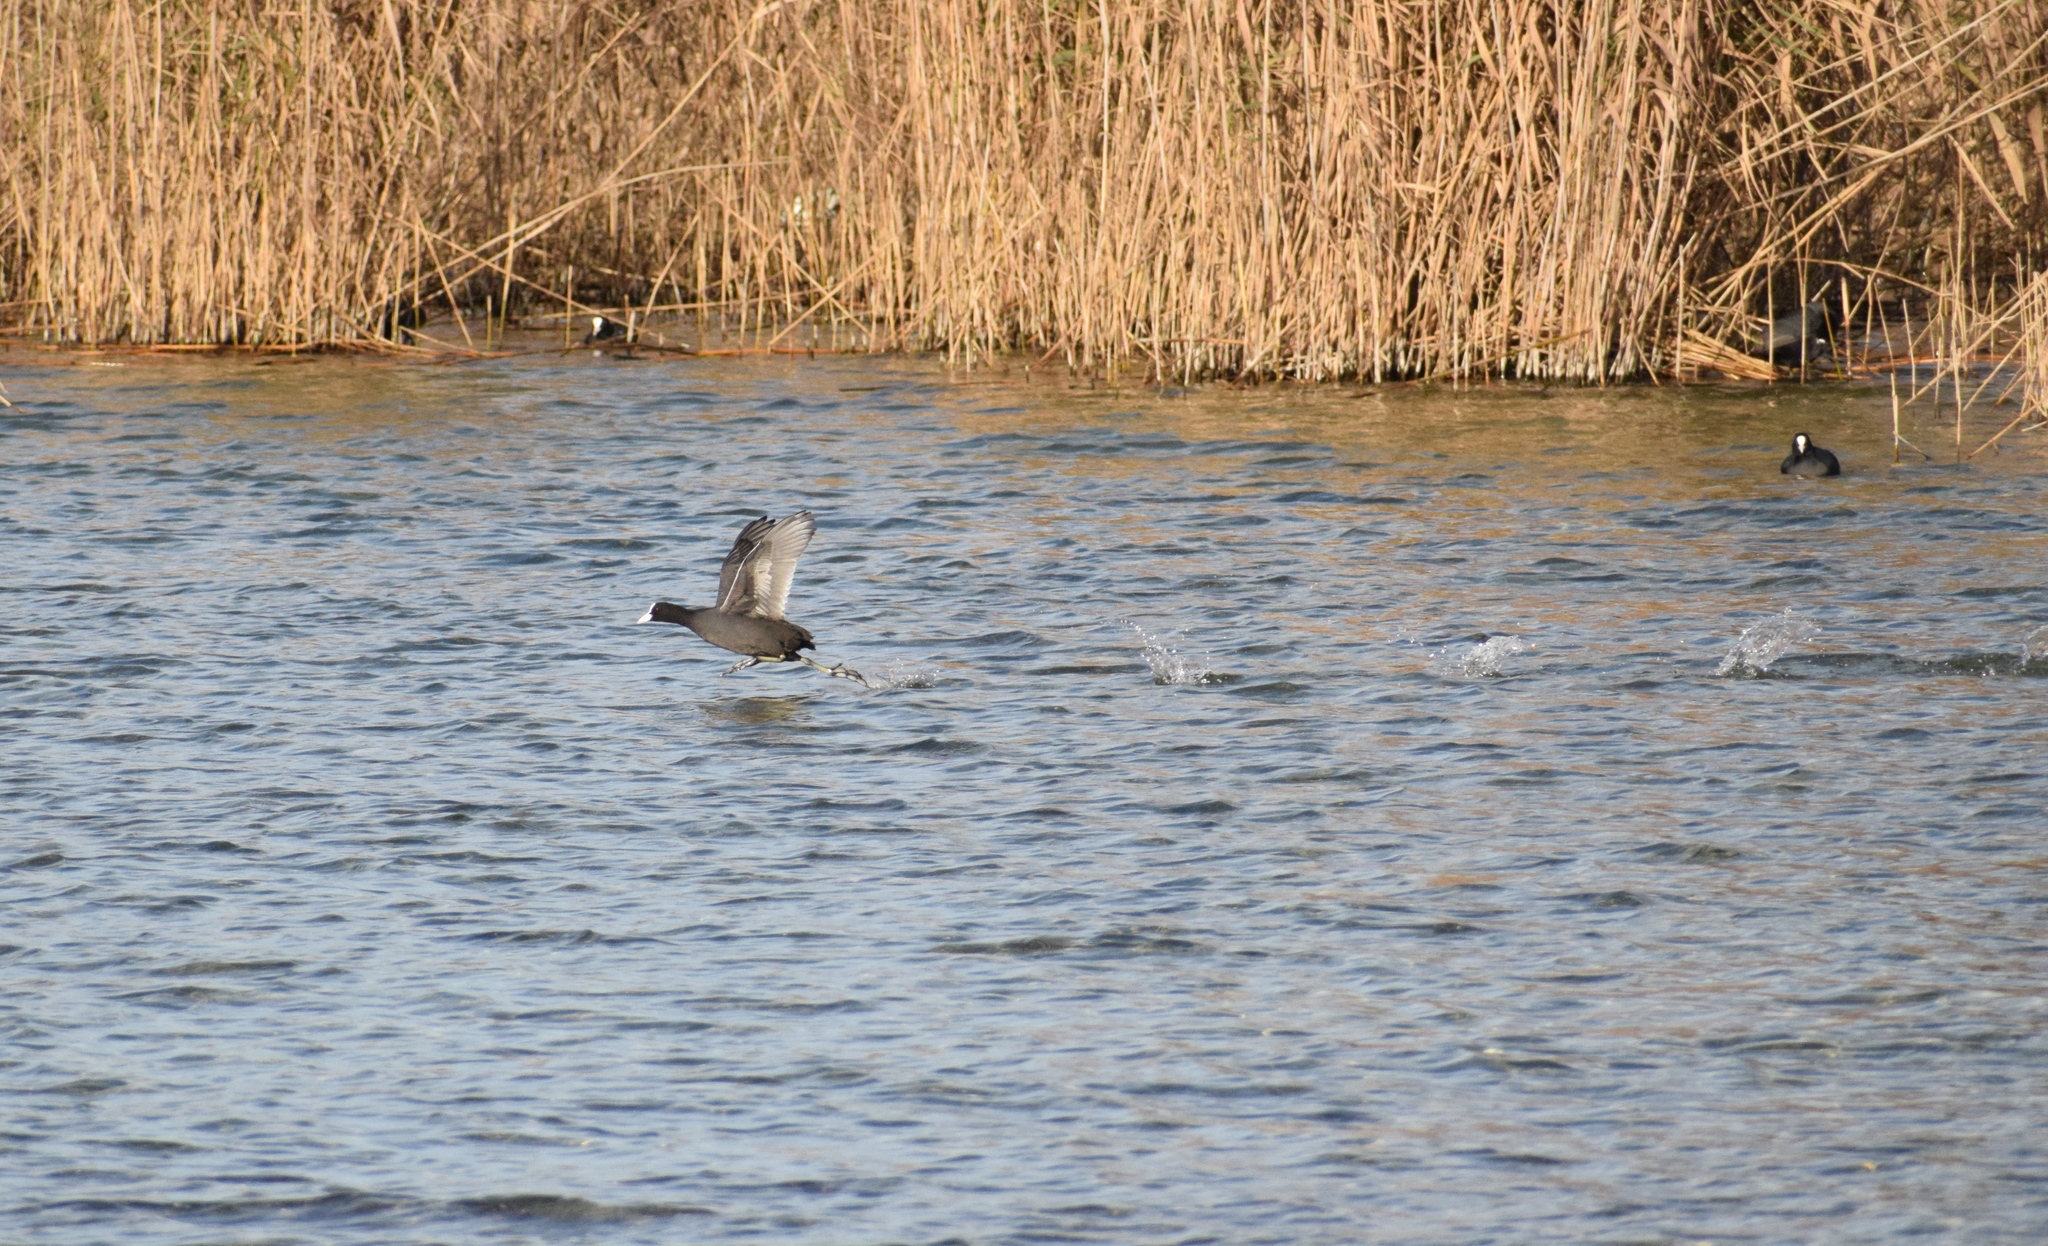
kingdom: Animalia
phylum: Chordata
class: Aves
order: Gruiformes
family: Rallidae
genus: Fulica
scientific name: Fulica atra
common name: Eurasian coot
